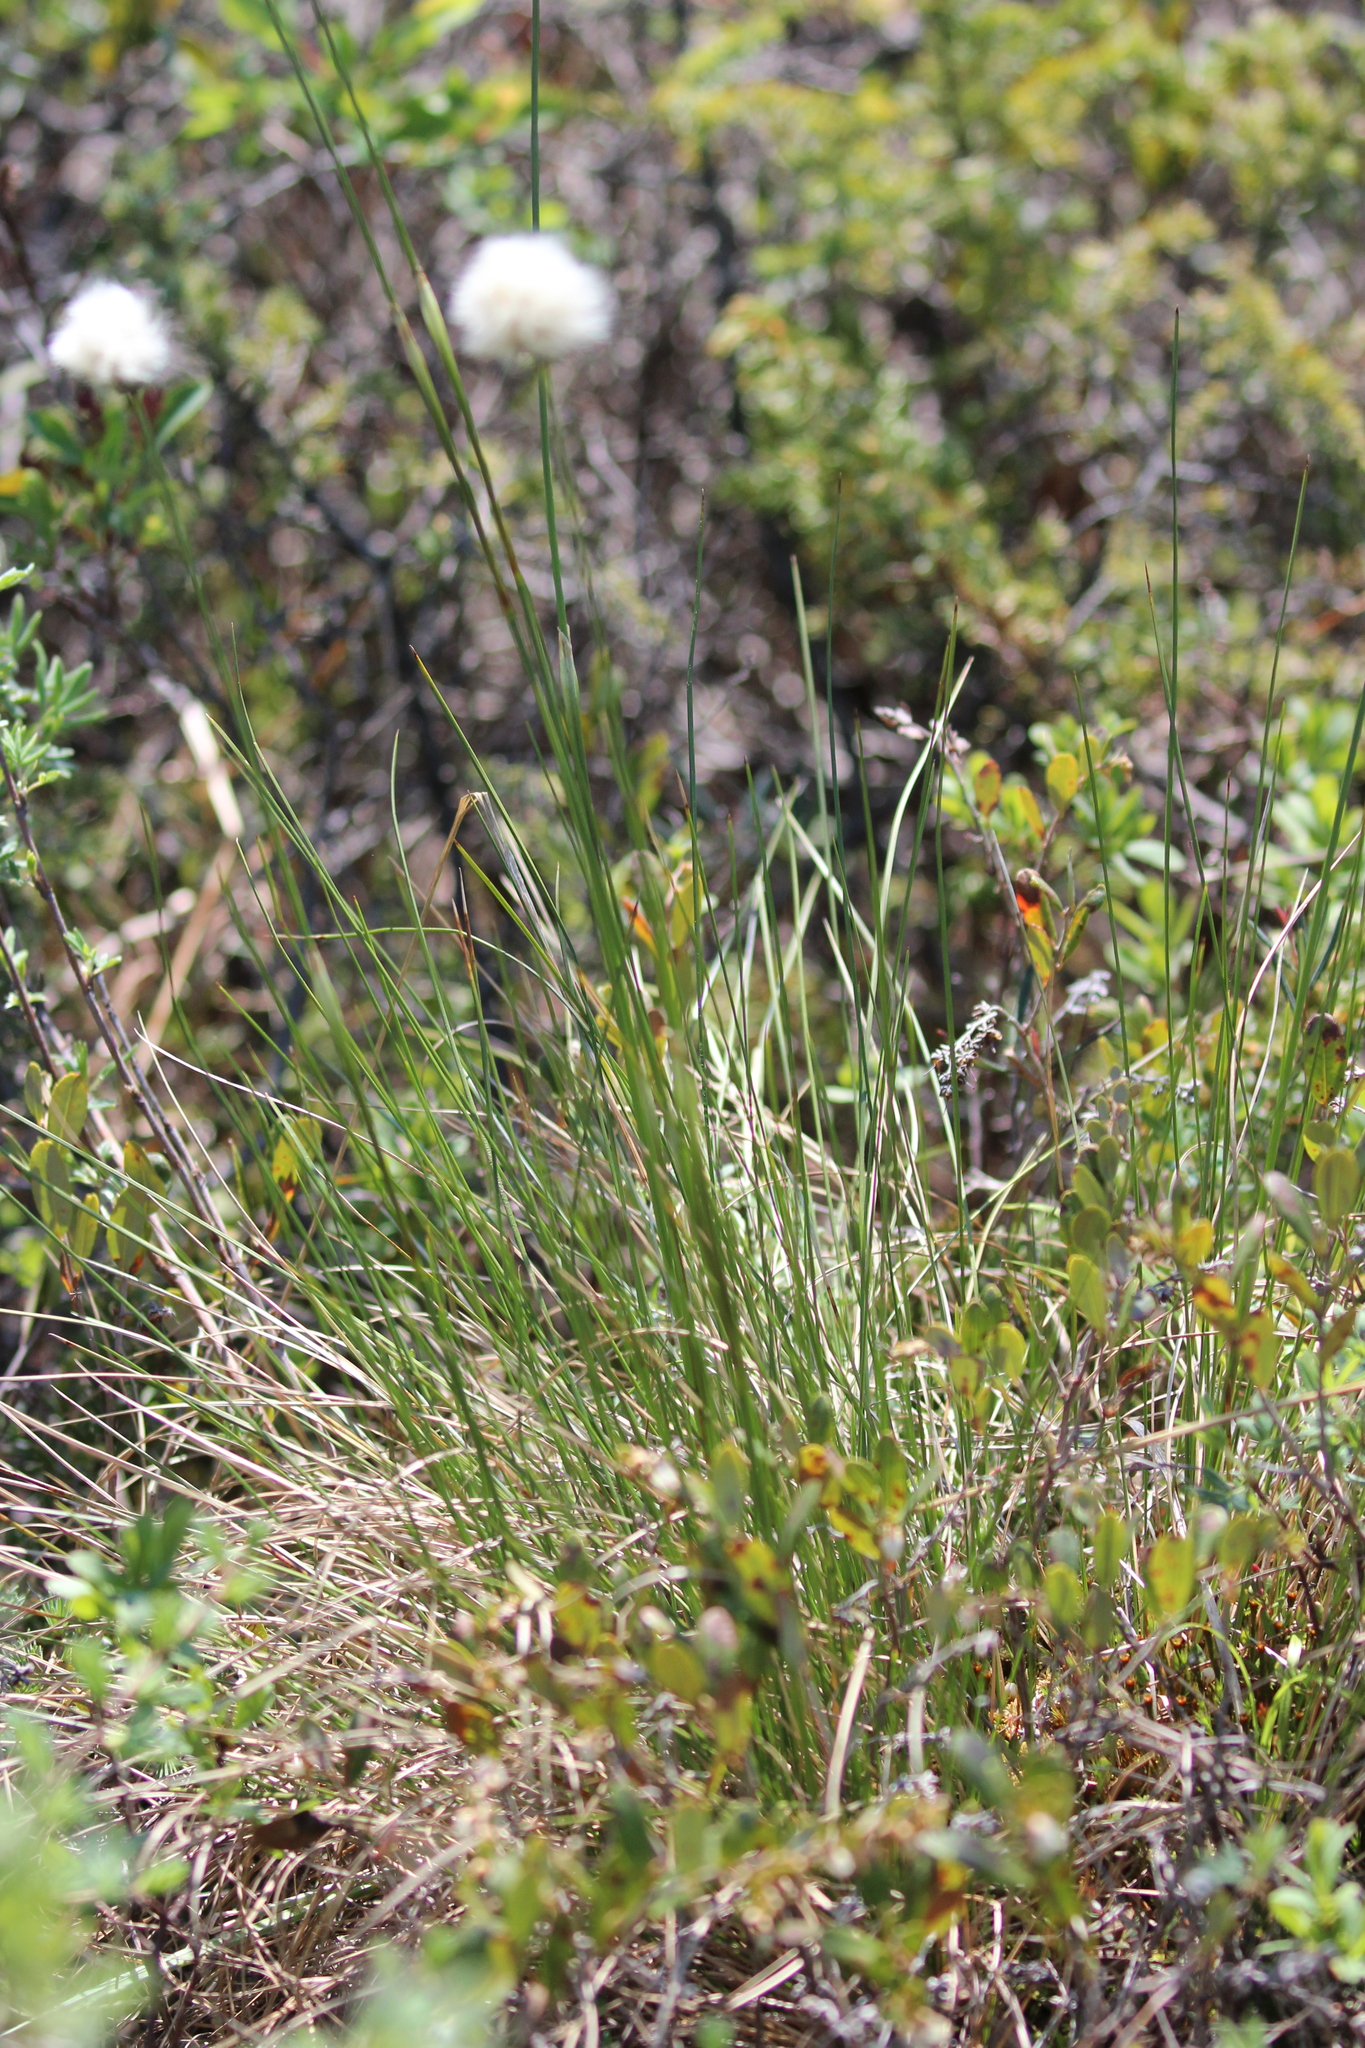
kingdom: Plantae
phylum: Tracheophyta
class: Liliopsida
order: Poales
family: Cyperaceae
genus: Eriophorum
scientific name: Eriophorum vaginatum
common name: Hare's-tail cottongrass
